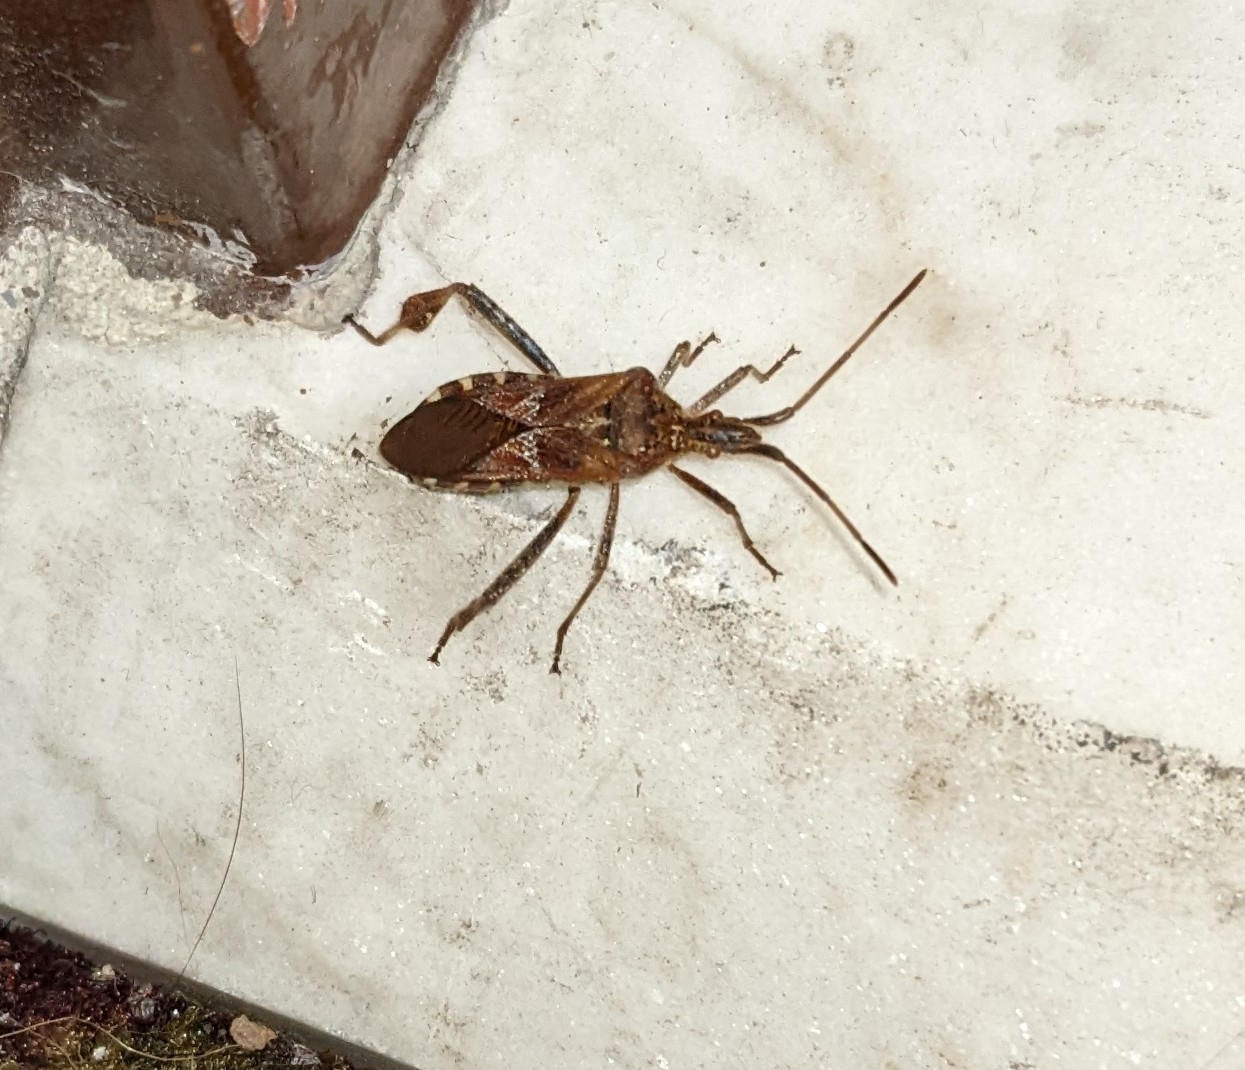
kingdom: Animalia
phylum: Arthropoda
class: Insecta
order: Hemiptera
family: Coreidae
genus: Leptoglossus
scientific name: Leptoglossus occidentalis
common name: Western conifer-seed bug
